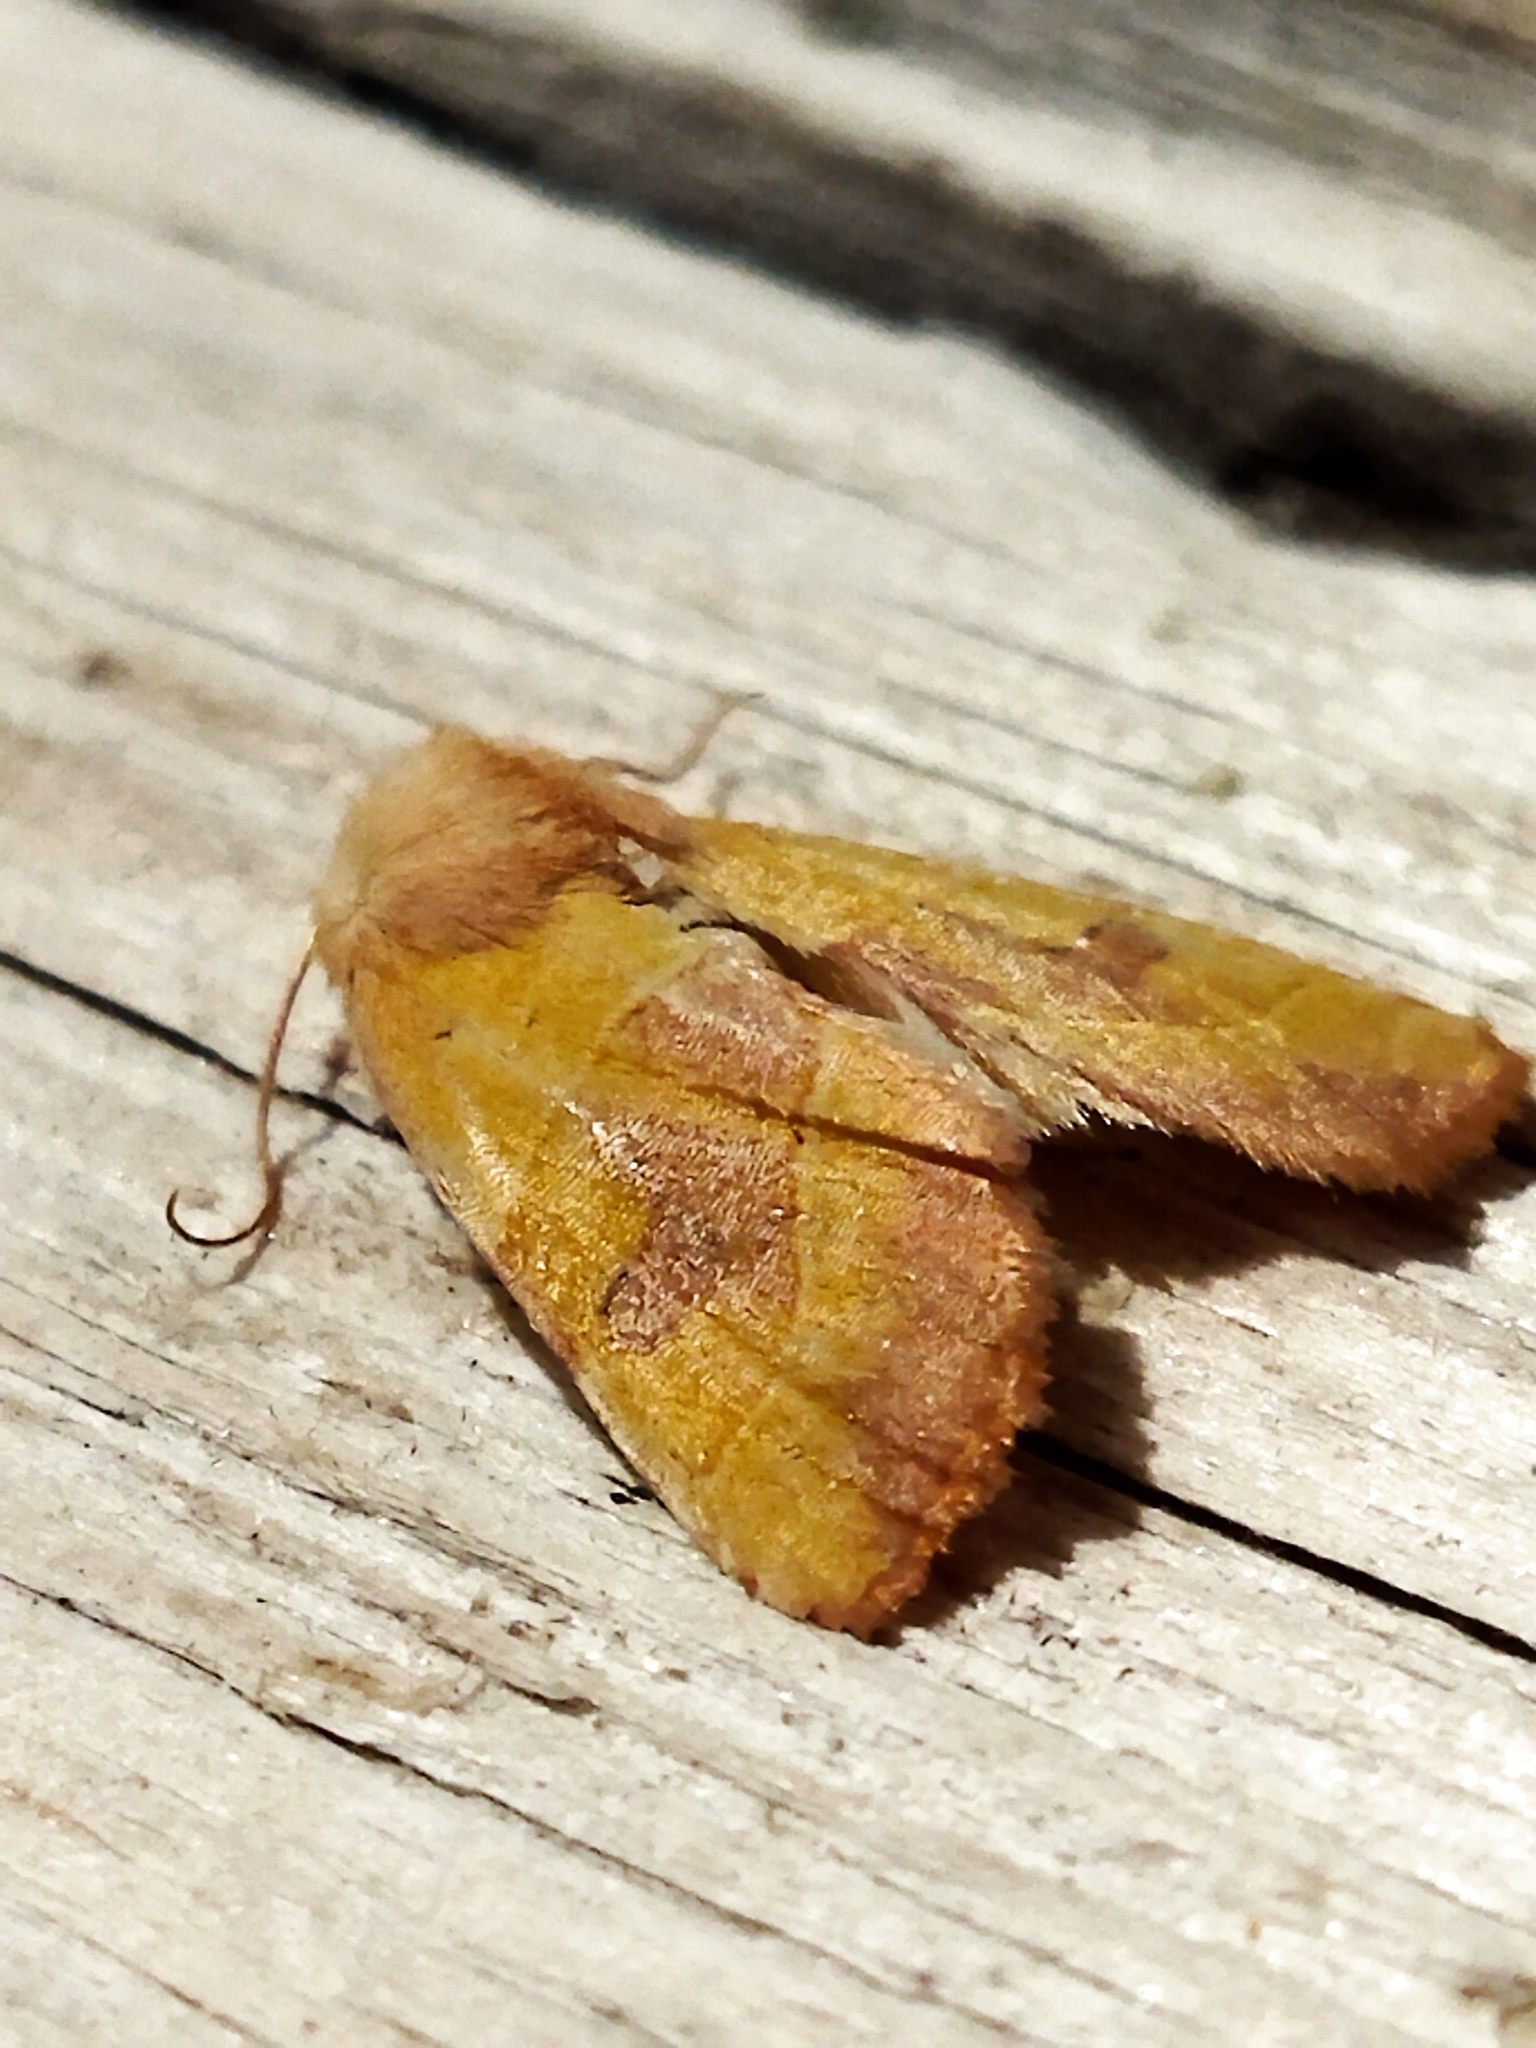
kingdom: Animalia
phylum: Arthropoda
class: Insecta
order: Lepidoptera
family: Noctuidae
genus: Atethmia
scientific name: Atethmia centrago
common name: Centre-barred sallow
